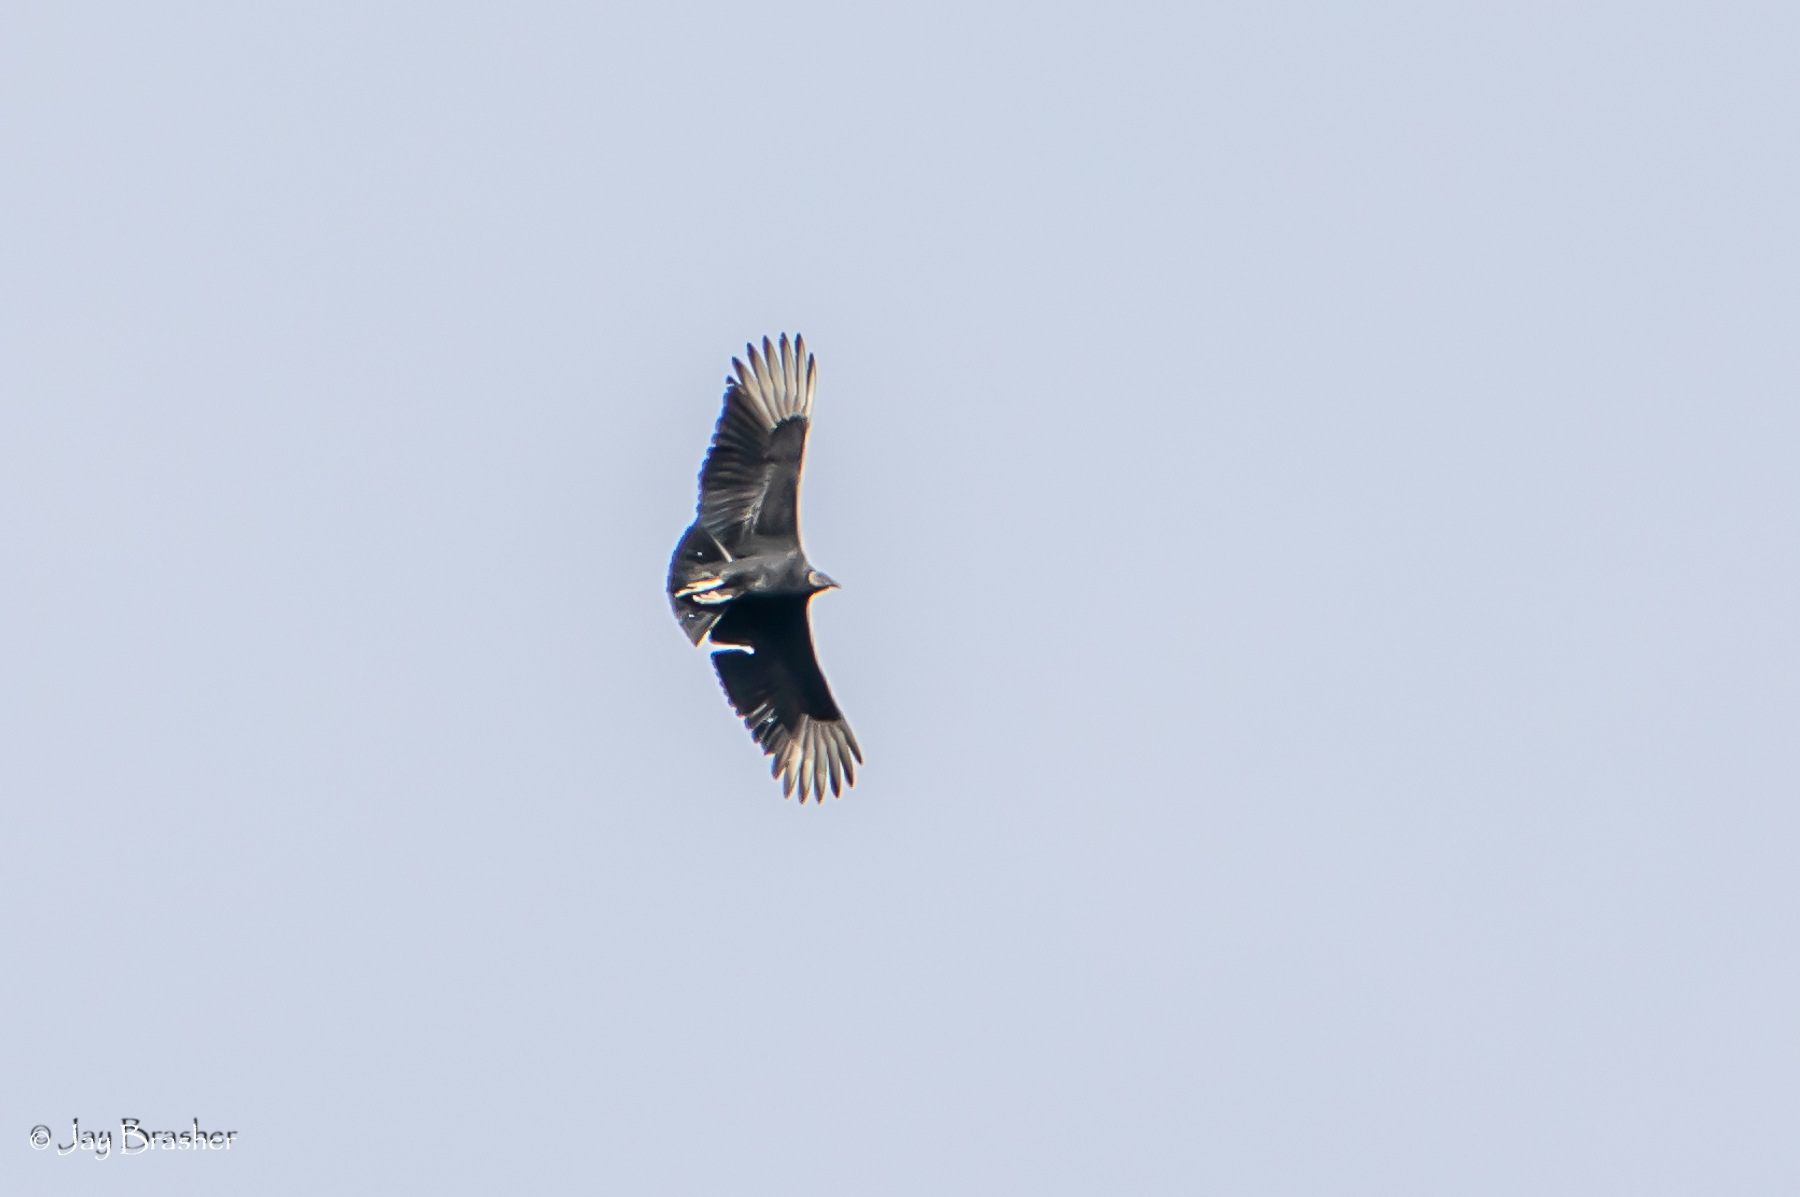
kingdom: Animalia
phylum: Chordata
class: Aves
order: Accipitriformes
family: Cathartidae
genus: Coragyps
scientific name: Coragyps atratus
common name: Black vulture
